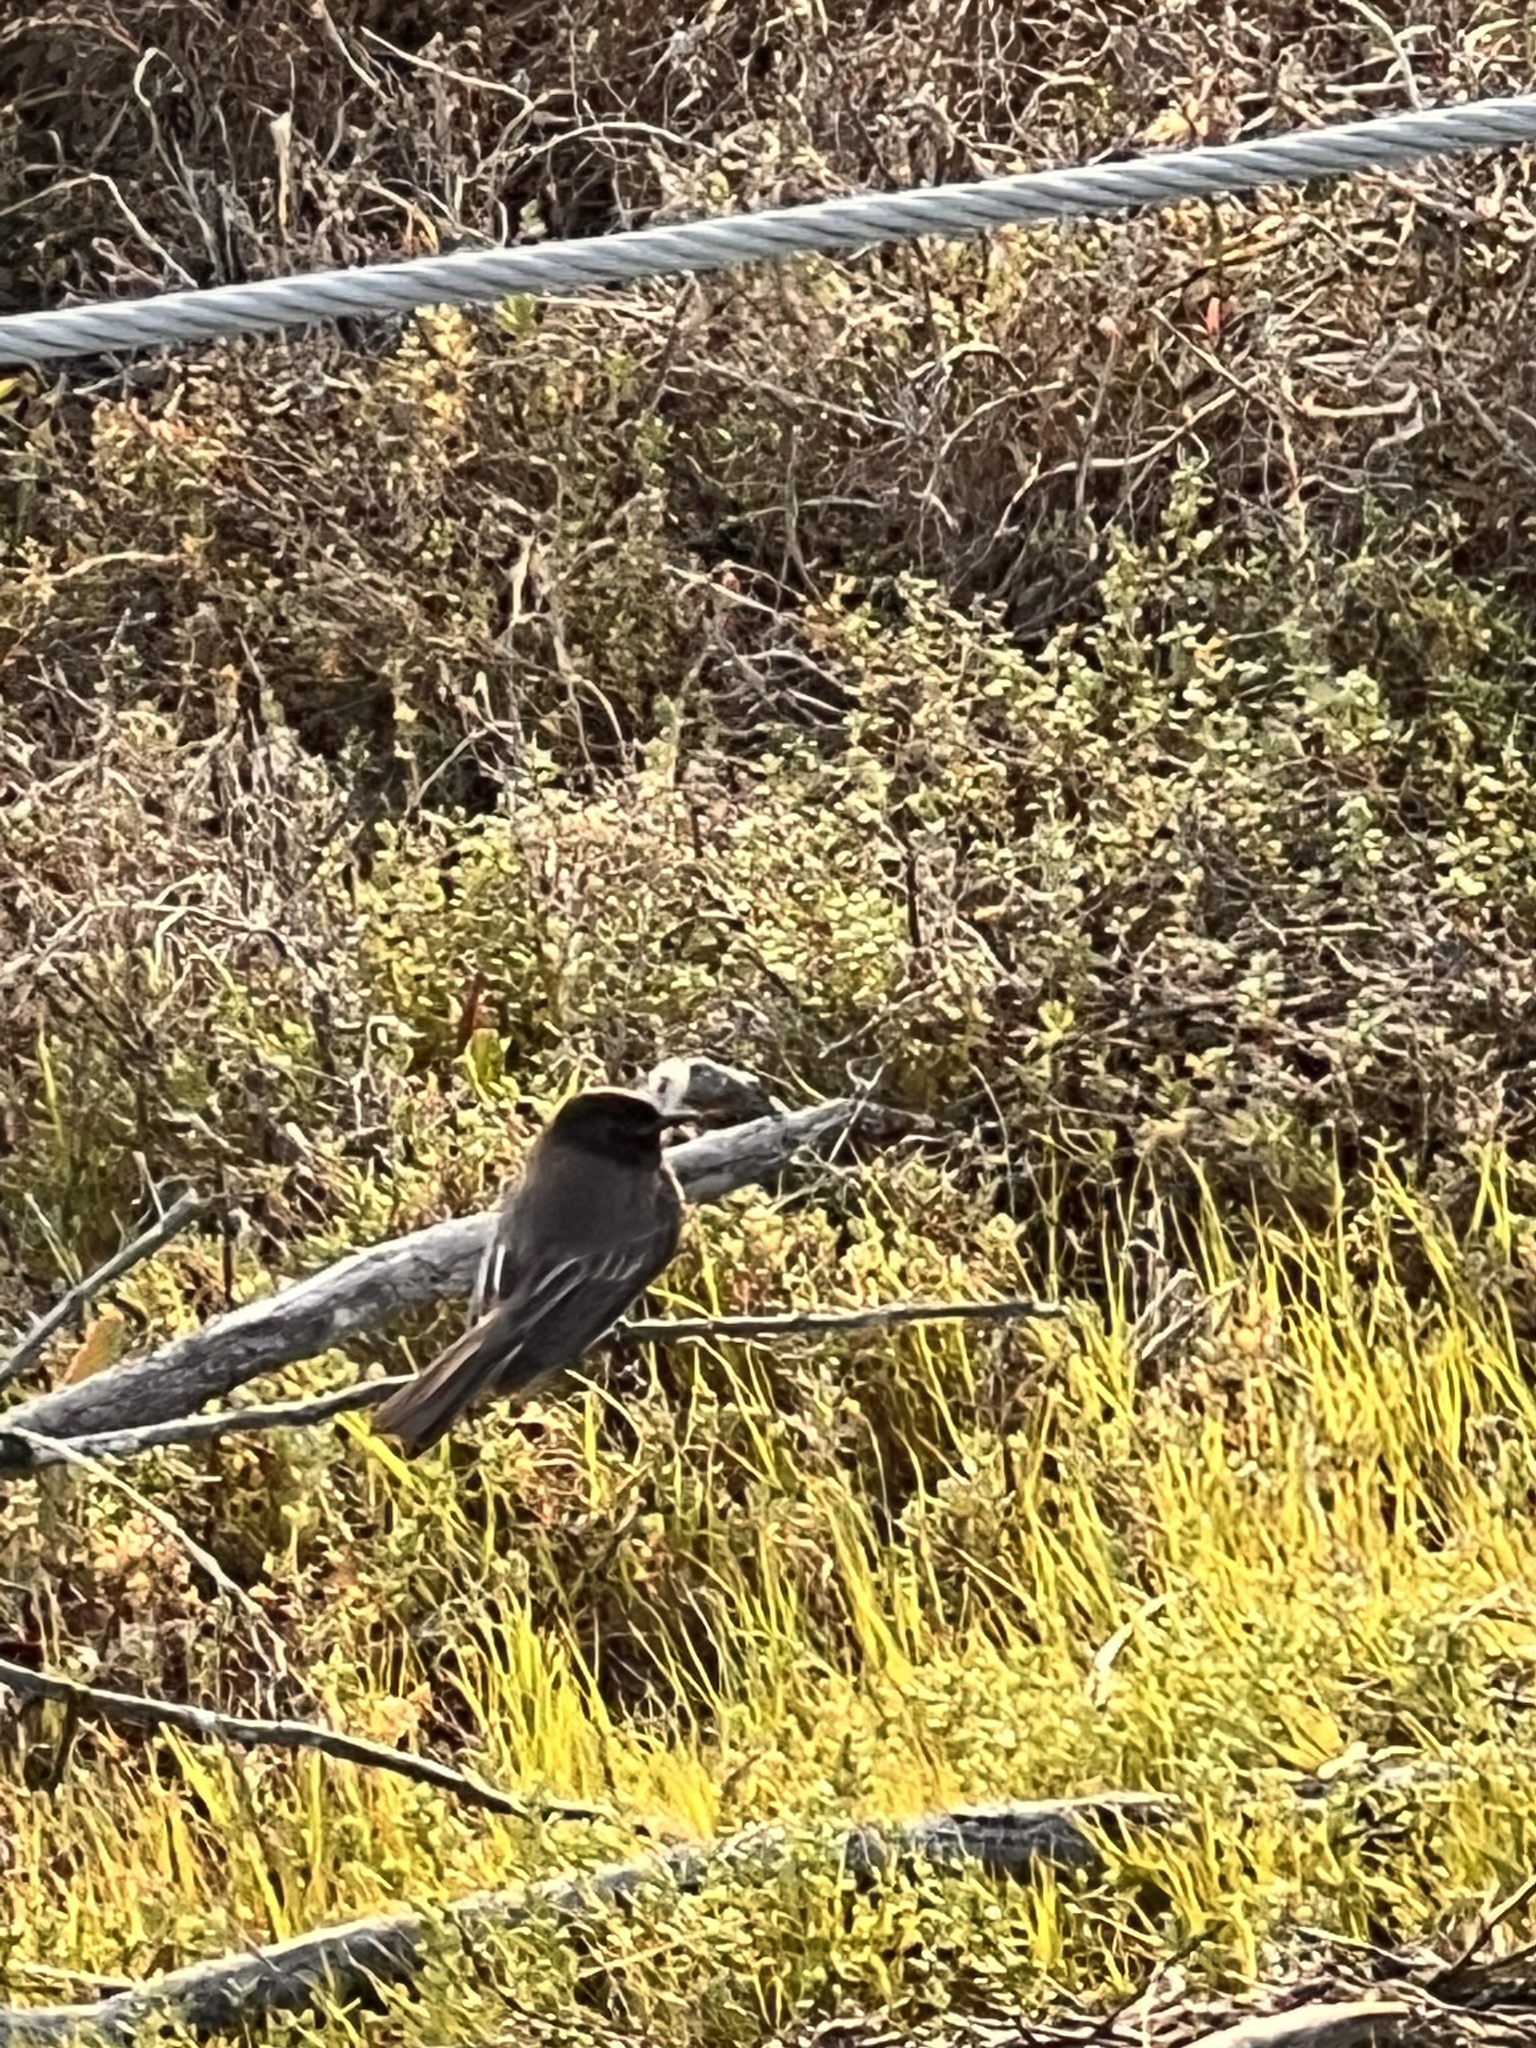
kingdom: Animalia
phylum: Chordata
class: Aves
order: Passeriformes
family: Tyrannidae
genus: Sayornis
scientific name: Sayornis nigricans
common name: Black phoebe
